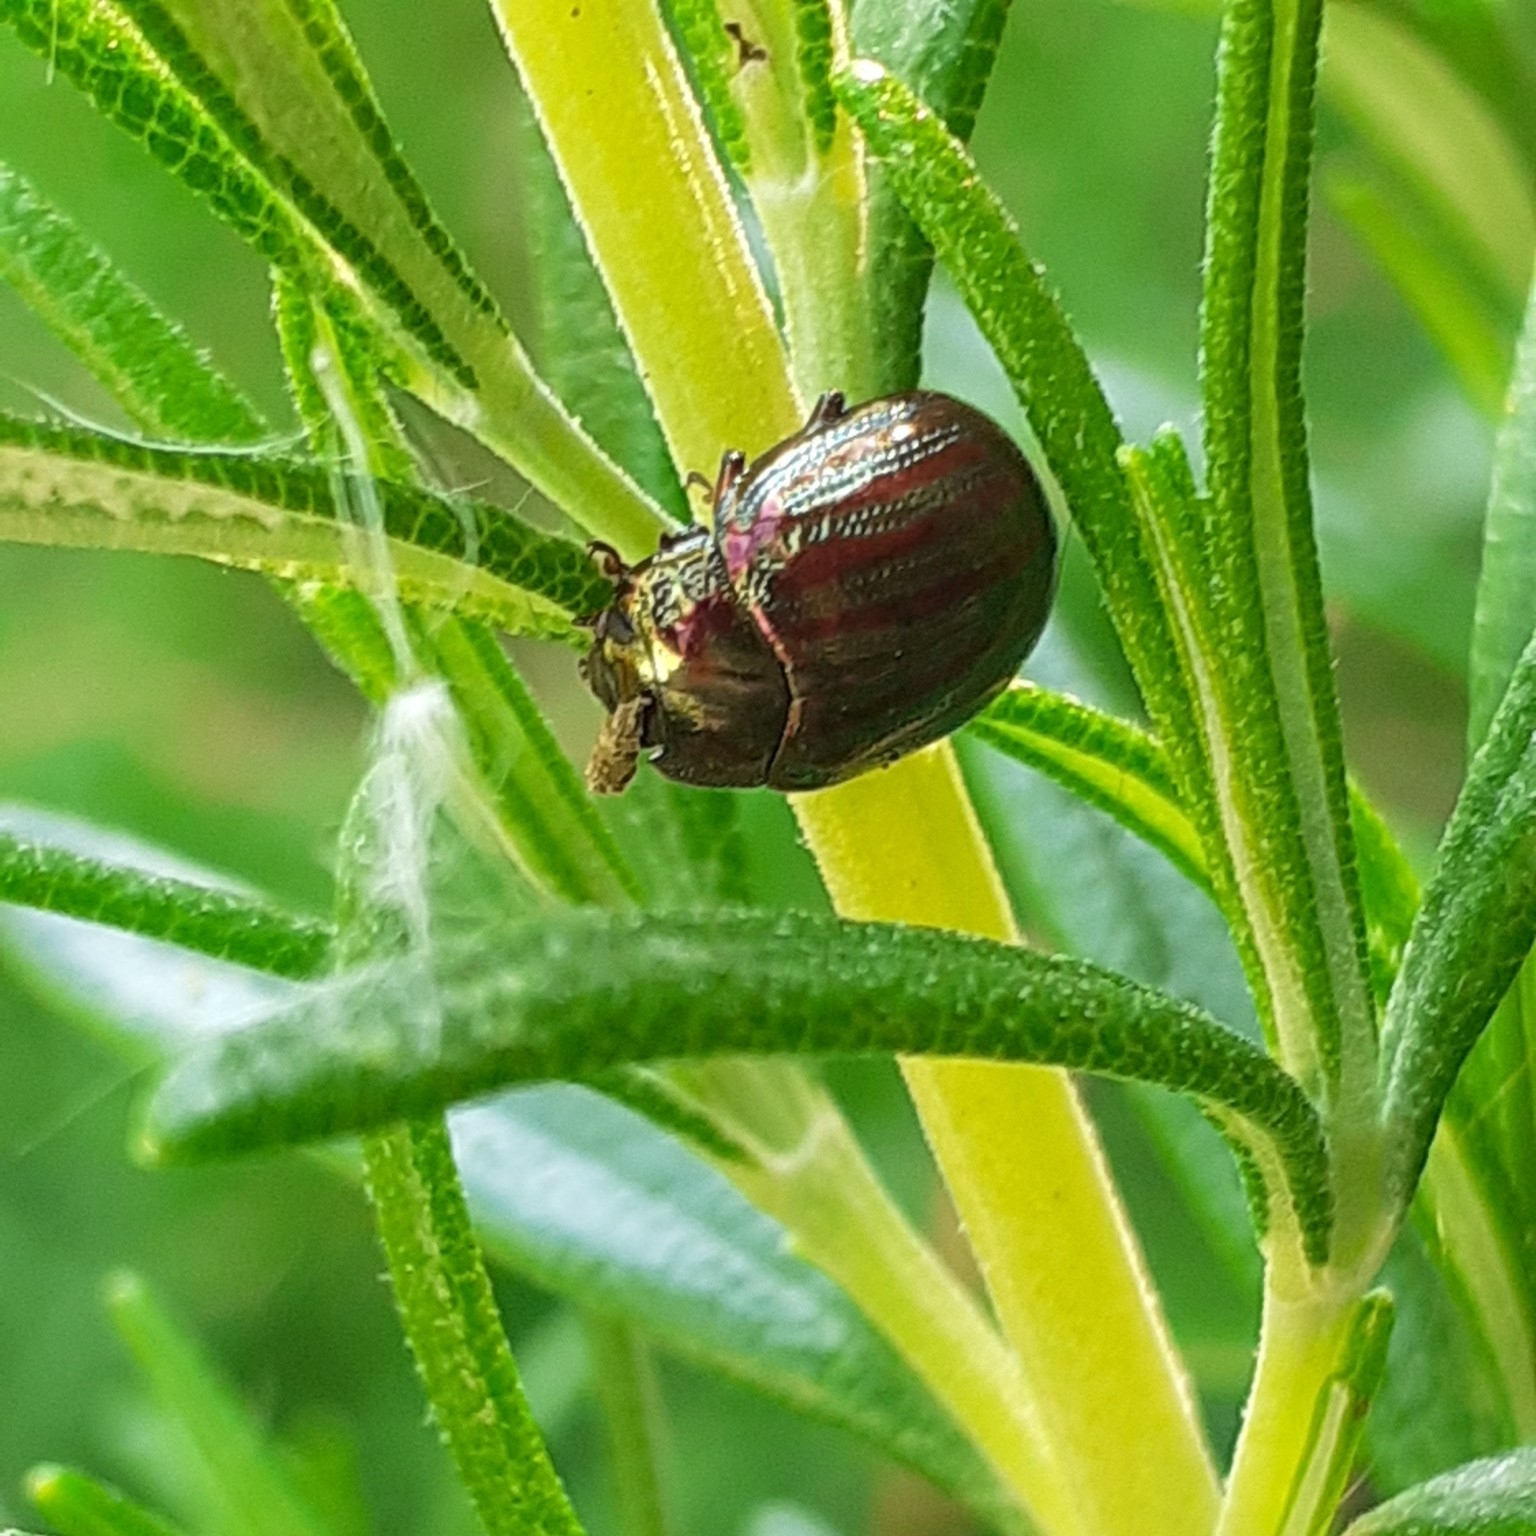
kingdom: Animalia
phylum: Arthropoda
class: Insecta
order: Coleoptera
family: Chrysomelidae
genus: Chrysolina
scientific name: Chrysolina americana
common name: Rosemary beetle
